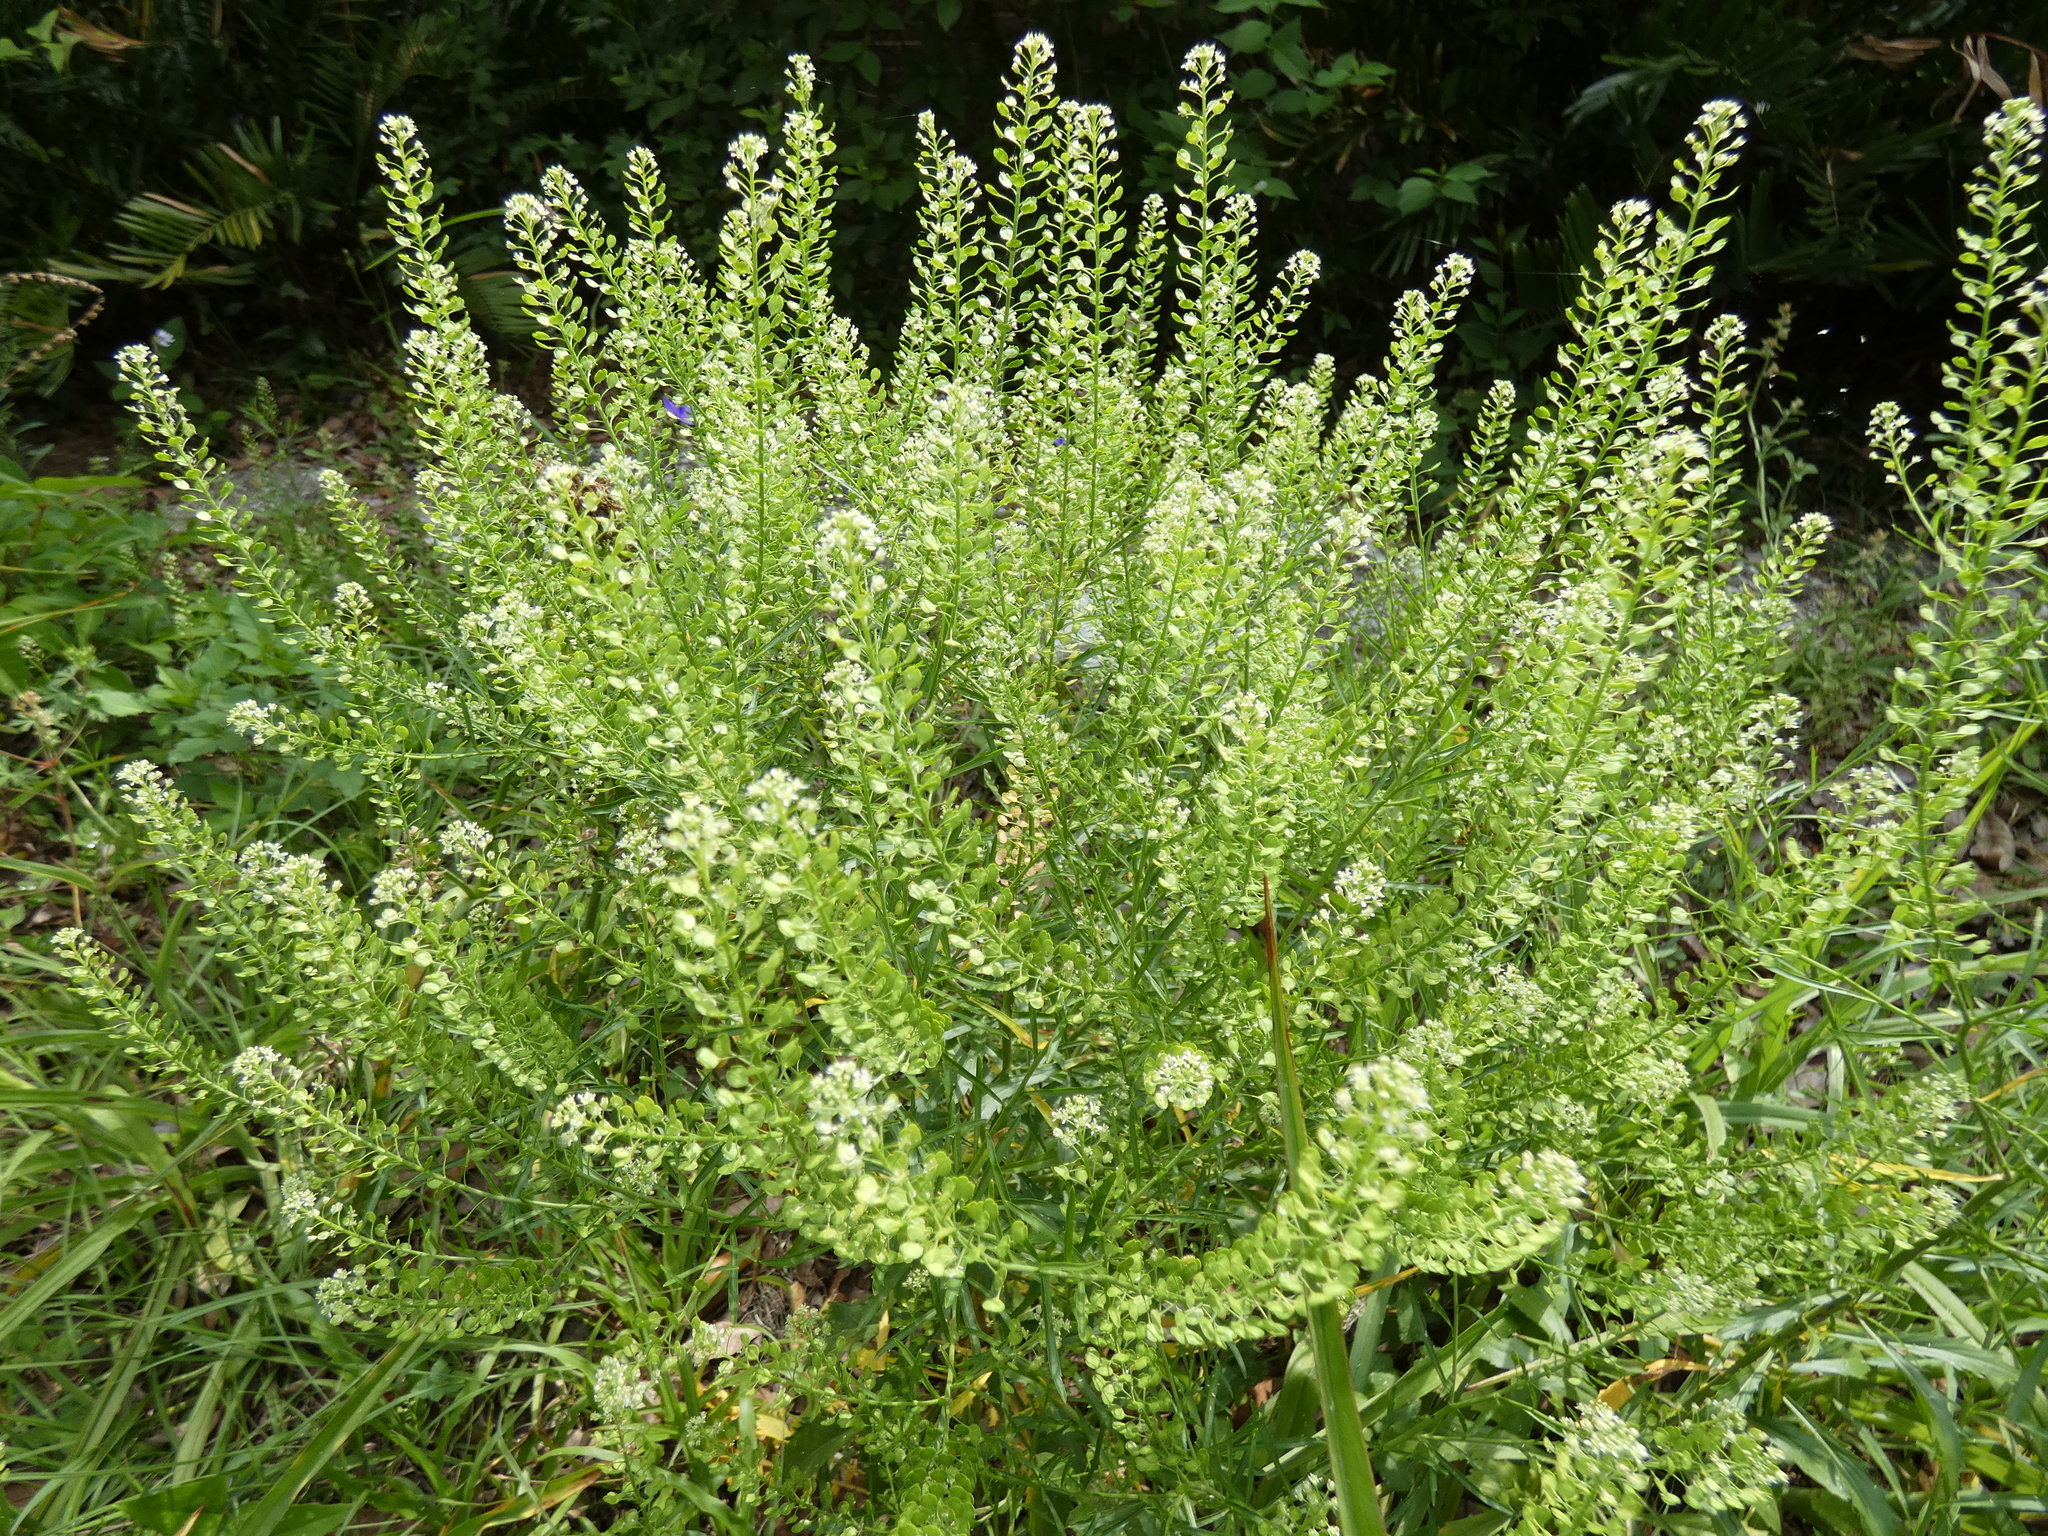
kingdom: Plantae
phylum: Tracheophyta
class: Magnoliopsida
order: Brassicales
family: Brassicaceae
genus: Lepidium
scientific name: Lepidium virginicum
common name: Least pepperwort
